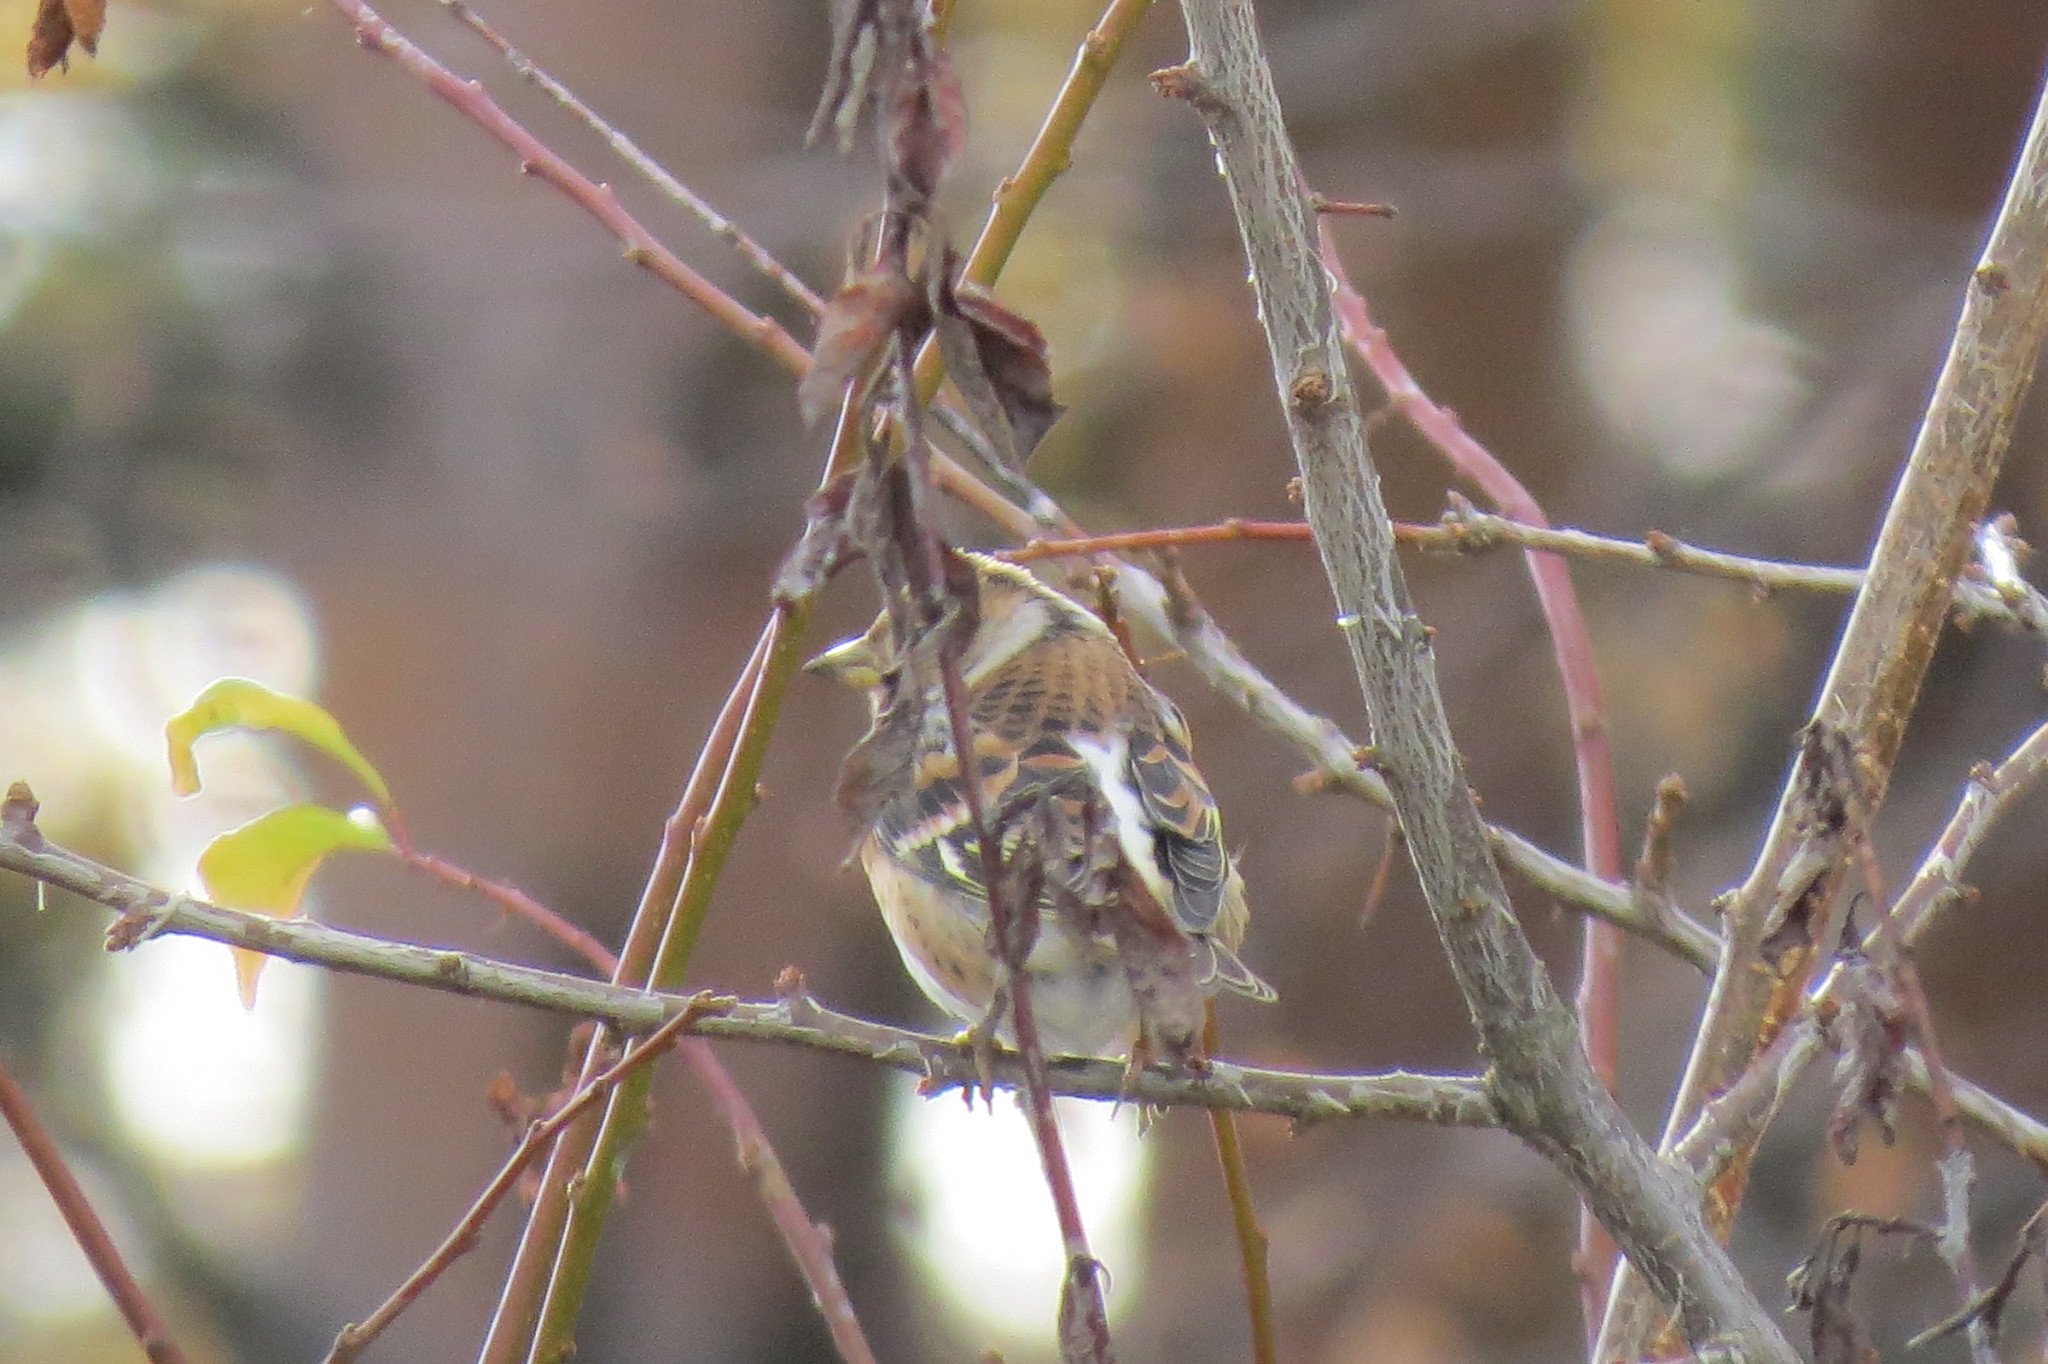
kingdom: Animalia
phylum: Chordata
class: Aves
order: Passeriformes
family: Fringillidae
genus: Fringilla
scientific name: Fringilla montifringilla
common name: Brambling
